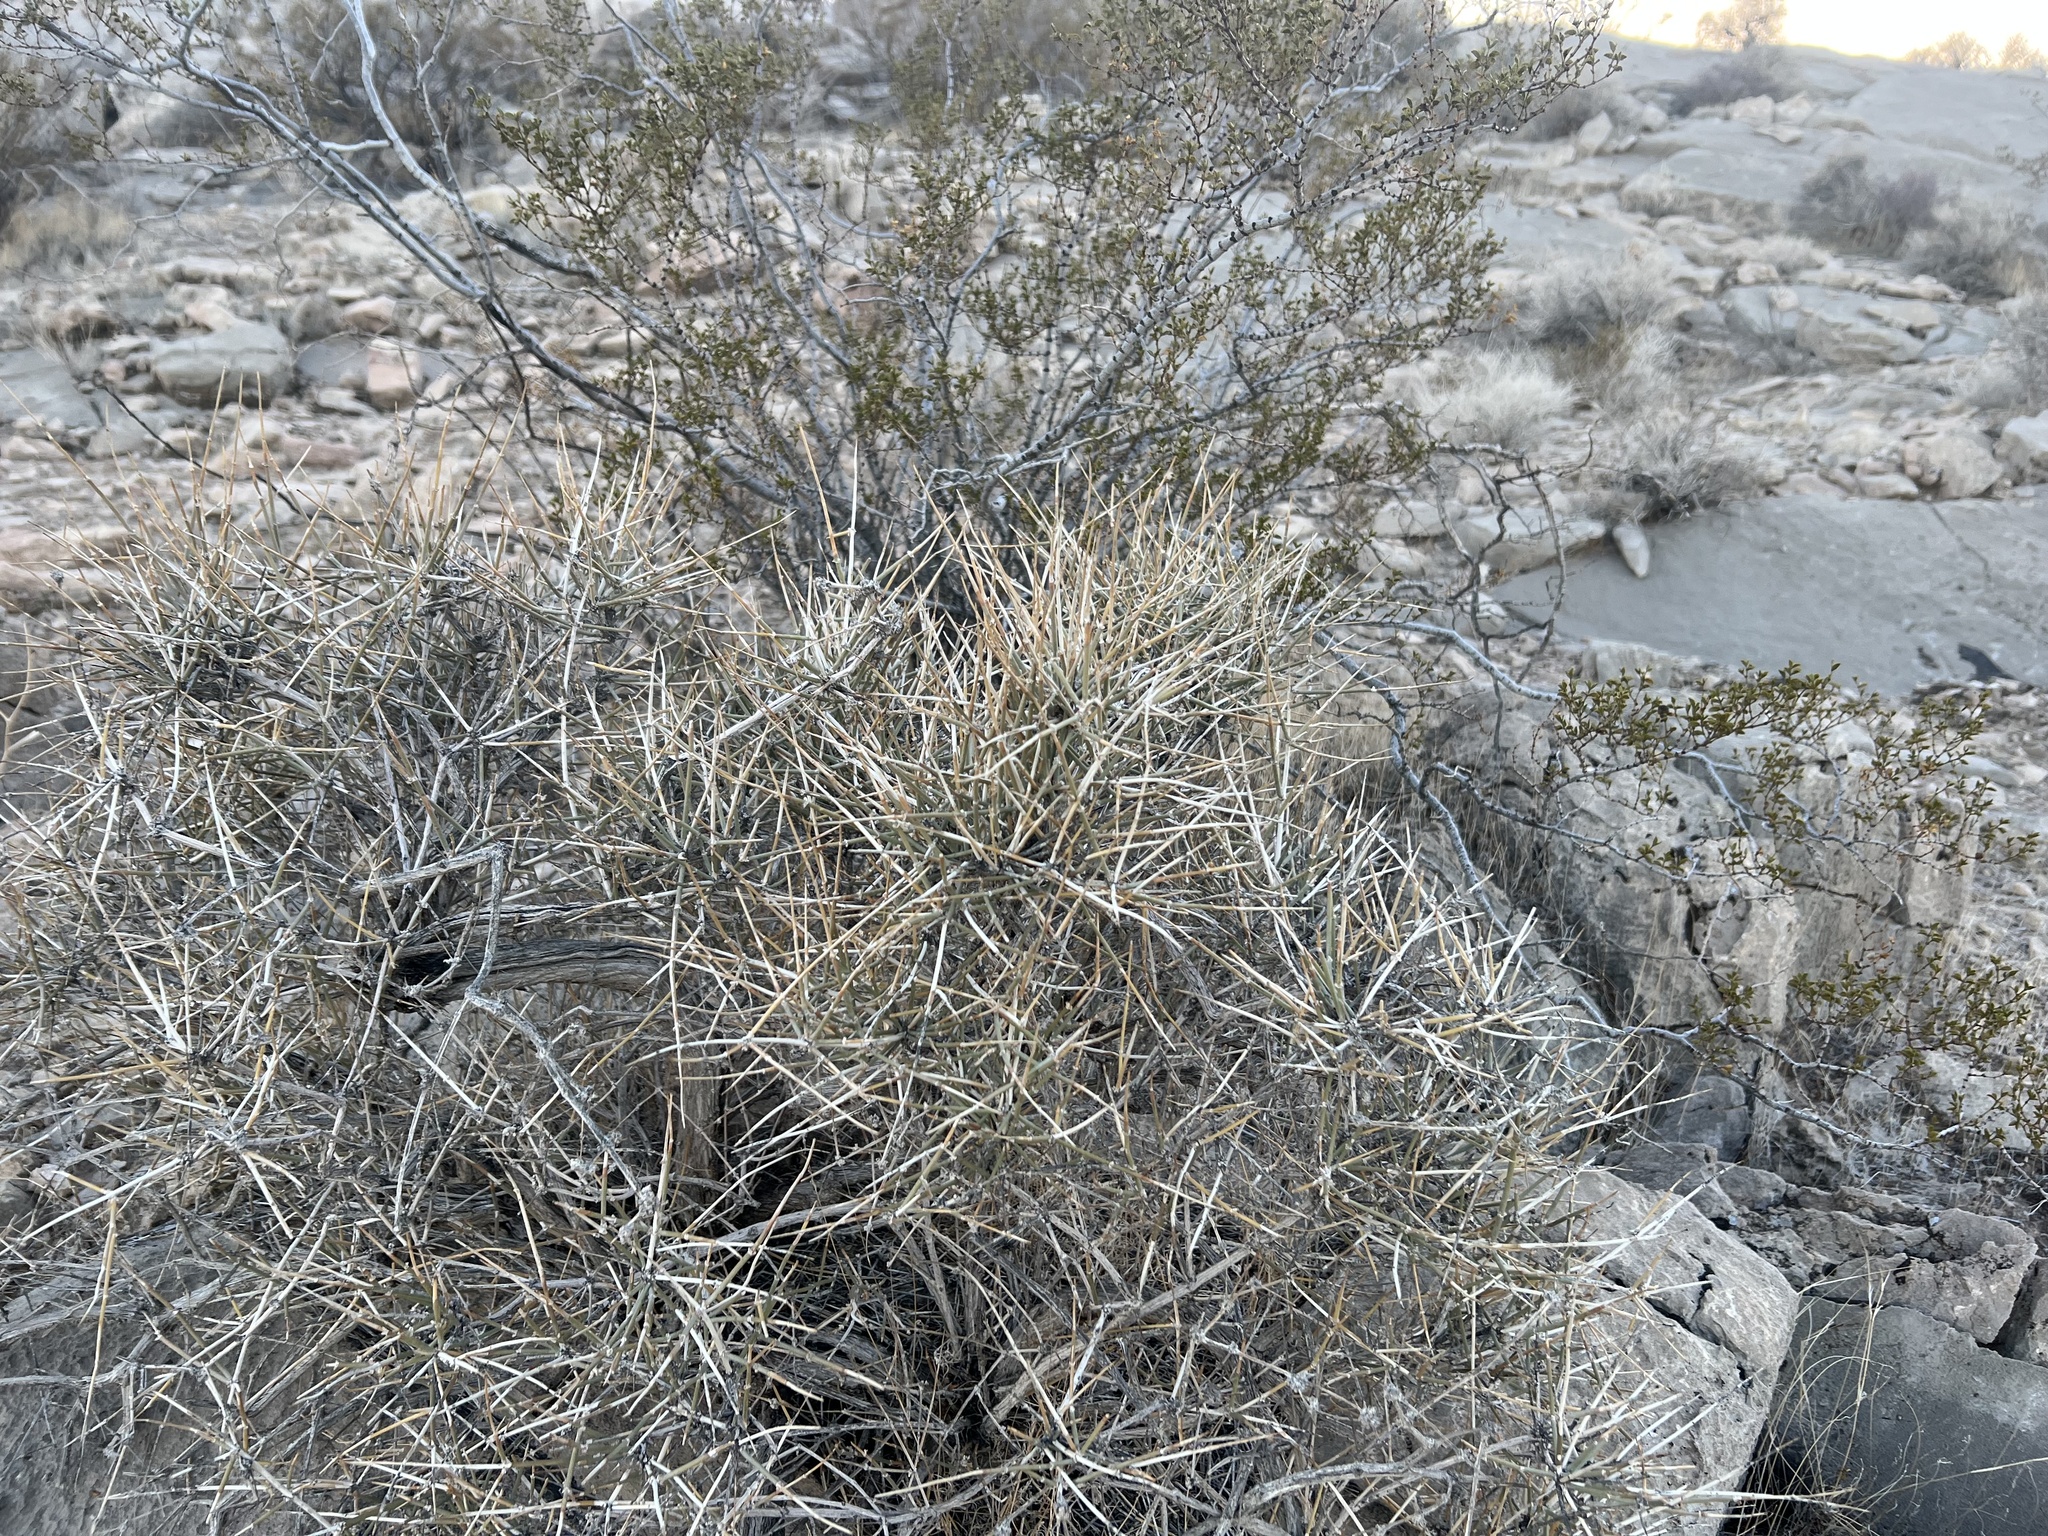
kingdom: Plantae
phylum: Tracheophyta
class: Gnetopsida
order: Ephedrales
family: Ephedraceae
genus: Ephedra
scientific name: Ephedra nevadensis
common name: Gray ephedra
